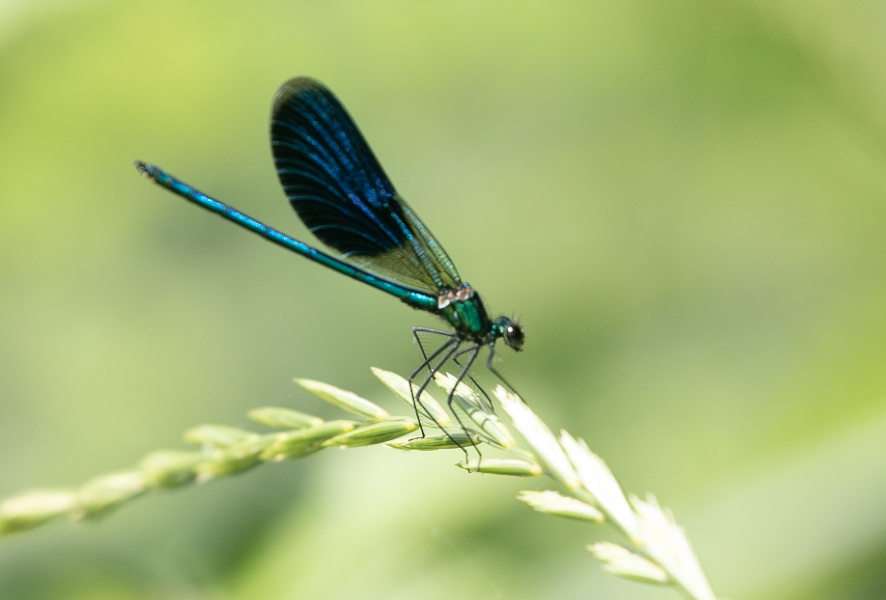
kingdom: Animalia
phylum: Arthropoda
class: Insecta
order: Odonata
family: Calopterygidae
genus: Calopteryx
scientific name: Calopteryx splendens
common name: Banded demoiselle
